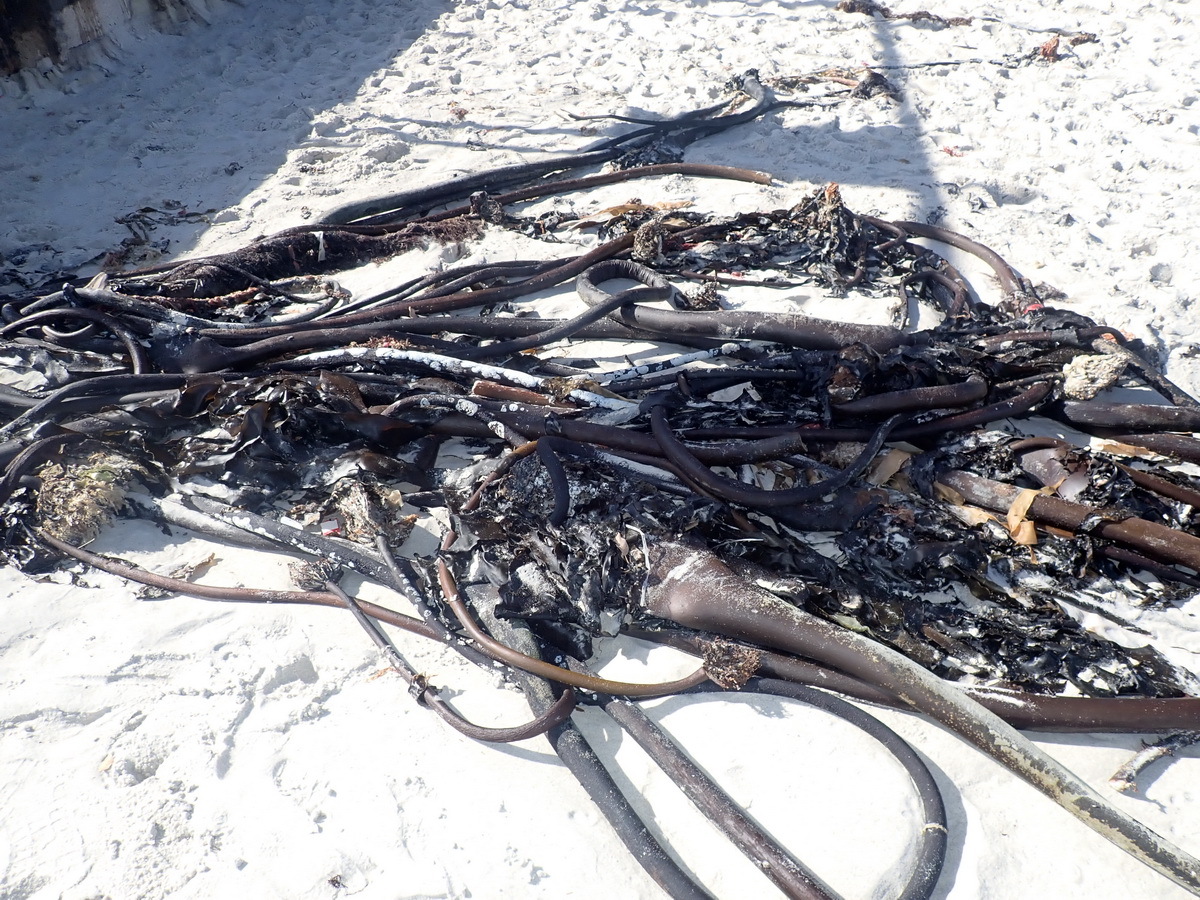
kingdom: Chromista
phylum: Ochrophyta
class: Phaeophyceae
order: Laminariales
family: Lessoniaceae
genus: Ecklonia
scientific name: Ecklonia
